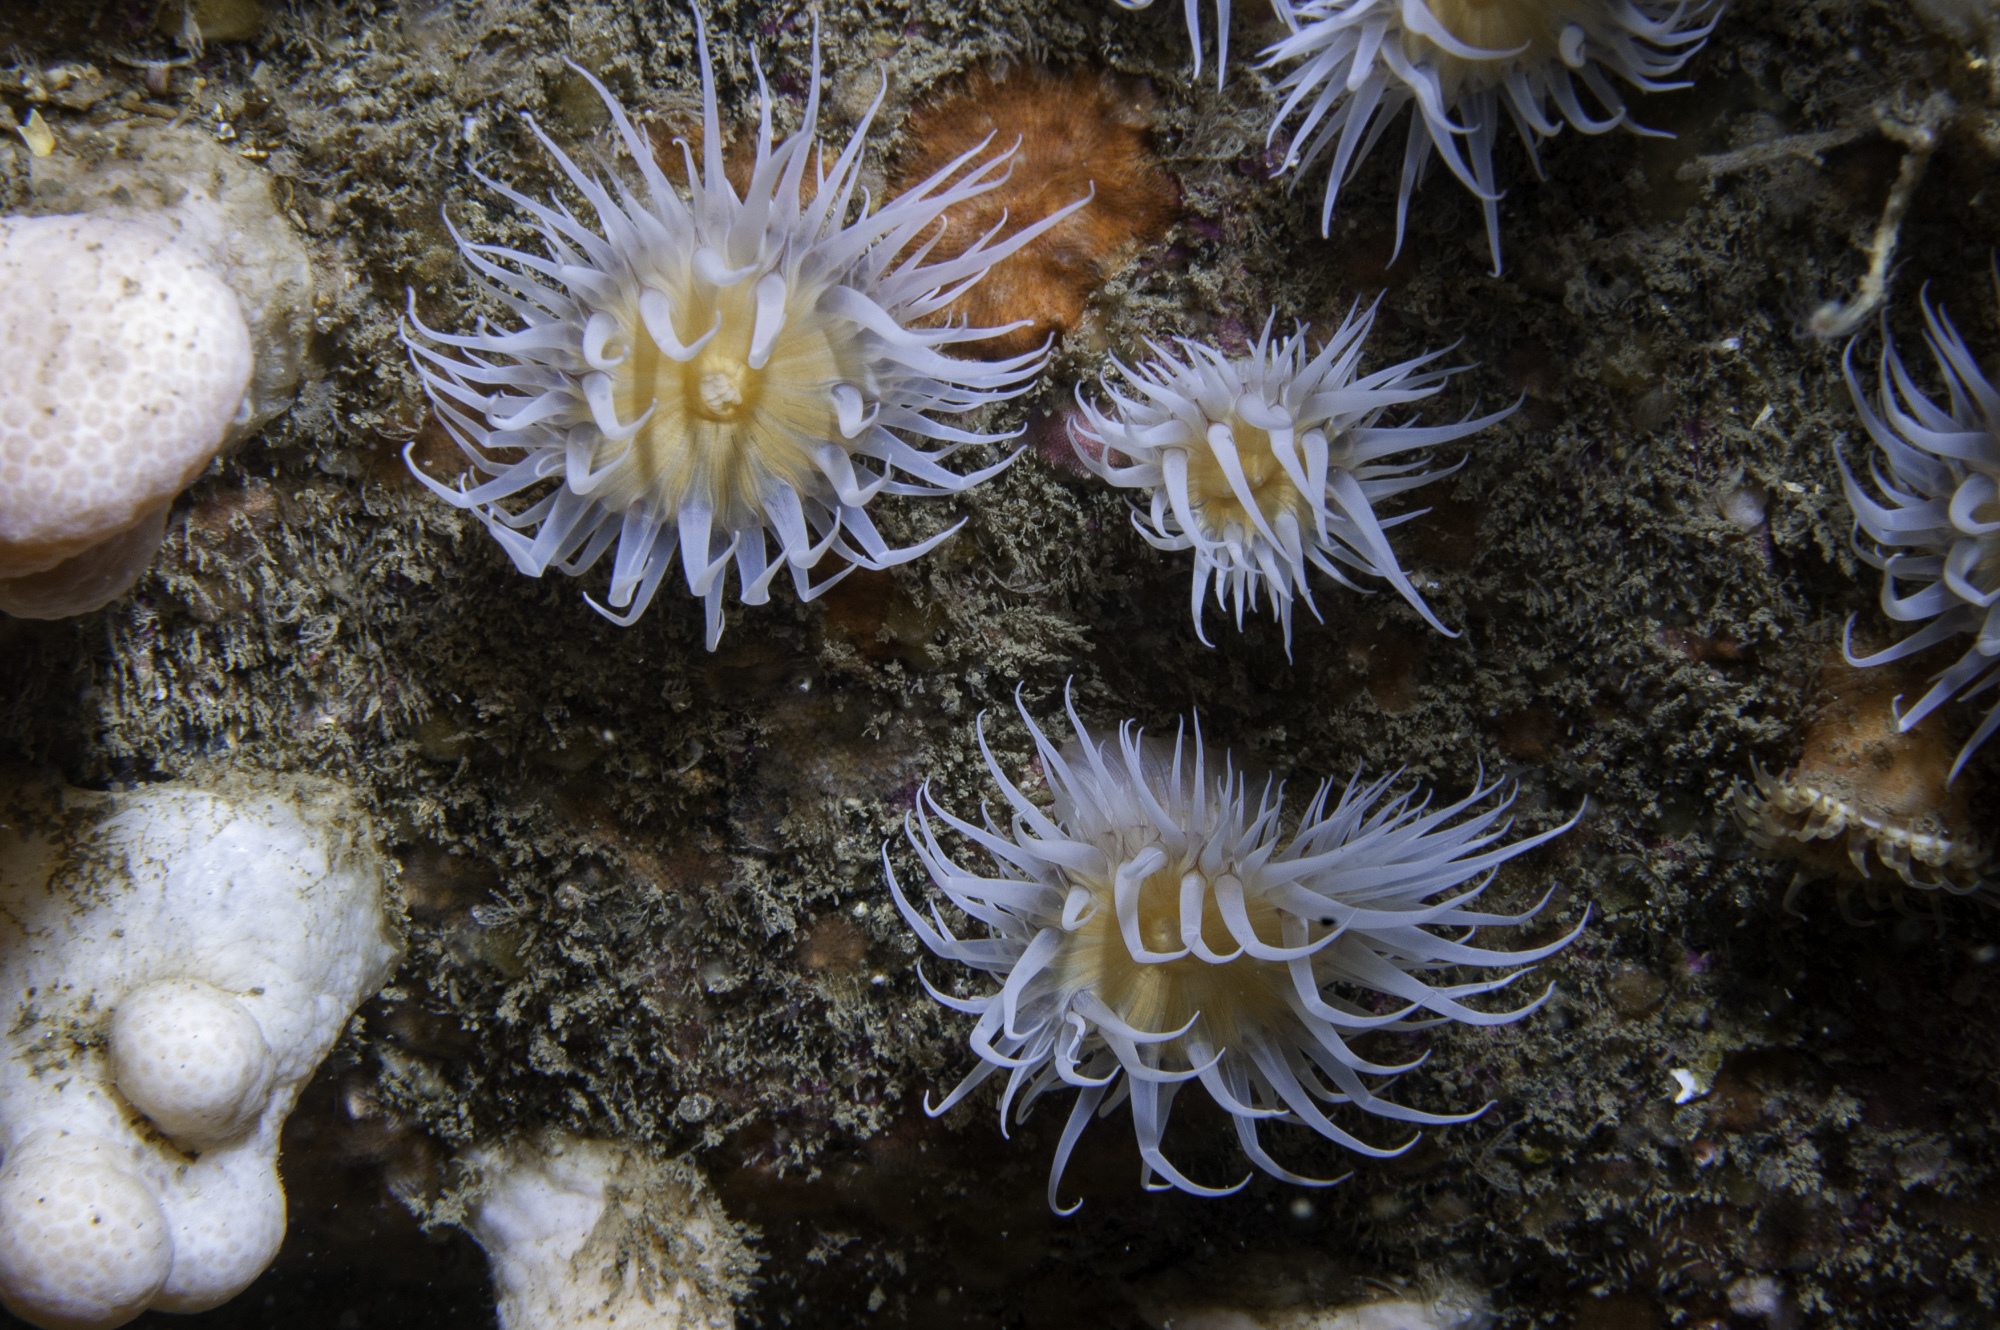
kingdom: Animalia
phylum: Cnidaria
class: Anthozoa
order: Actiniaria
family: Sagartiidae
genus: Actinothoe
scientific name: Actinothoe sphyrodeta
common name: Sandalled anemone
